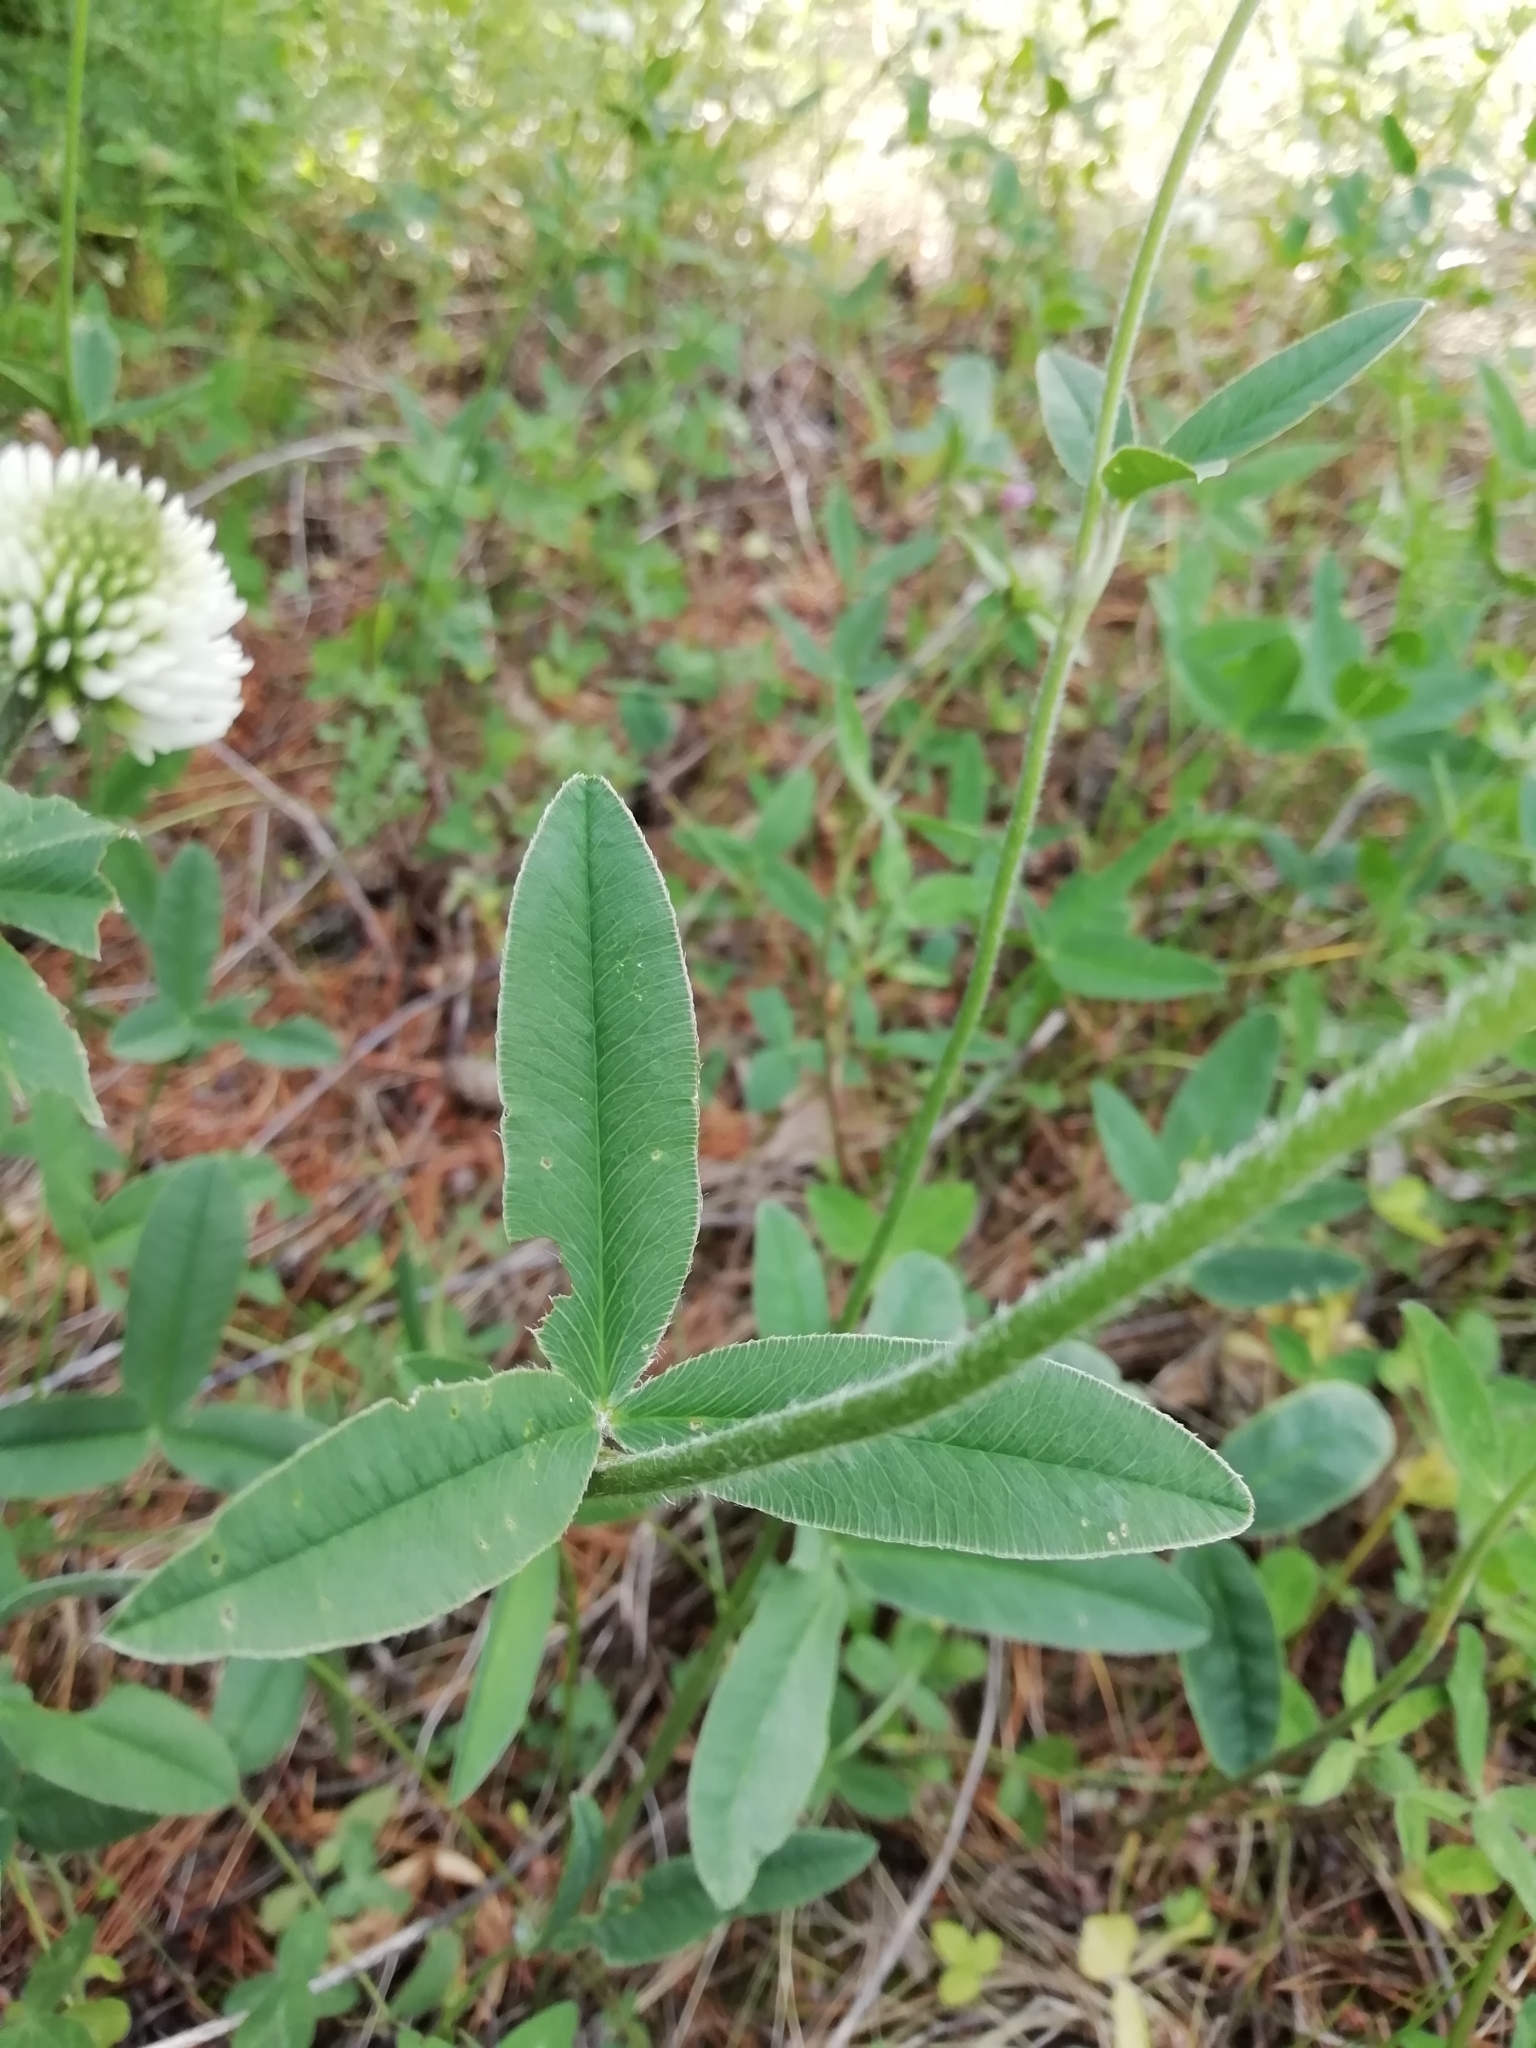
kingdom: Plantae
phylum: Tracheophyta
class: Magnoliopsida
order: Fabales
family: Fabaceae
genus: Trifolium
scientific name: Trifolium montanum
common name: Mountain clover
